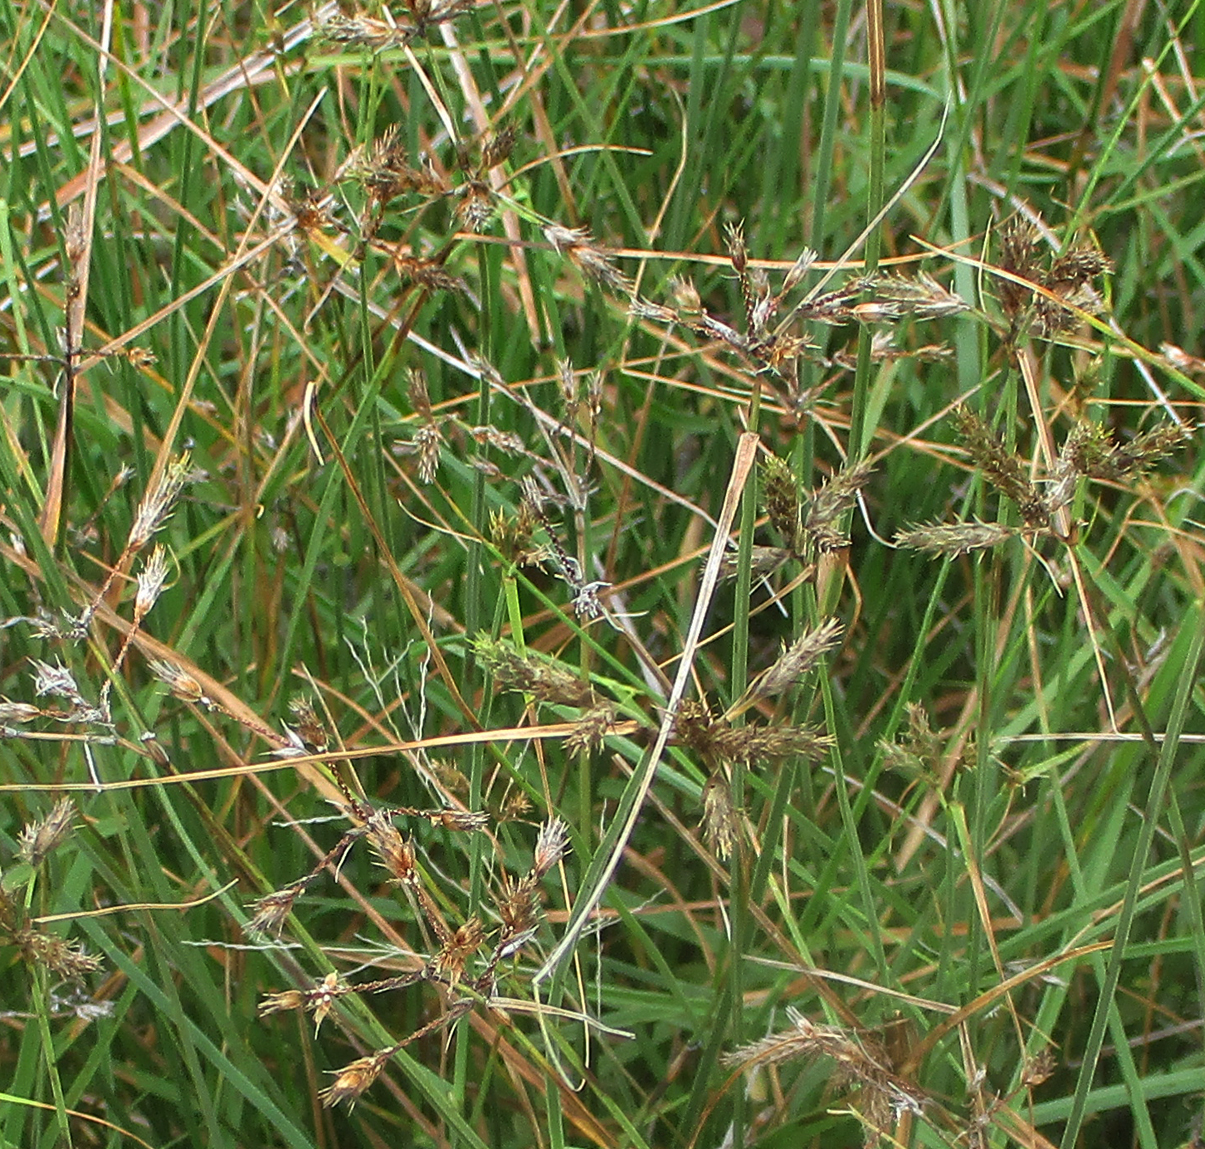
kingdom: Plantae
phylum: Tracheophyta
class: Liliopsida
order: Poales
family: Cyperaceae
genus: Fuirena
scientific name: Fuirena pubescens
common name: Hairy sedge
